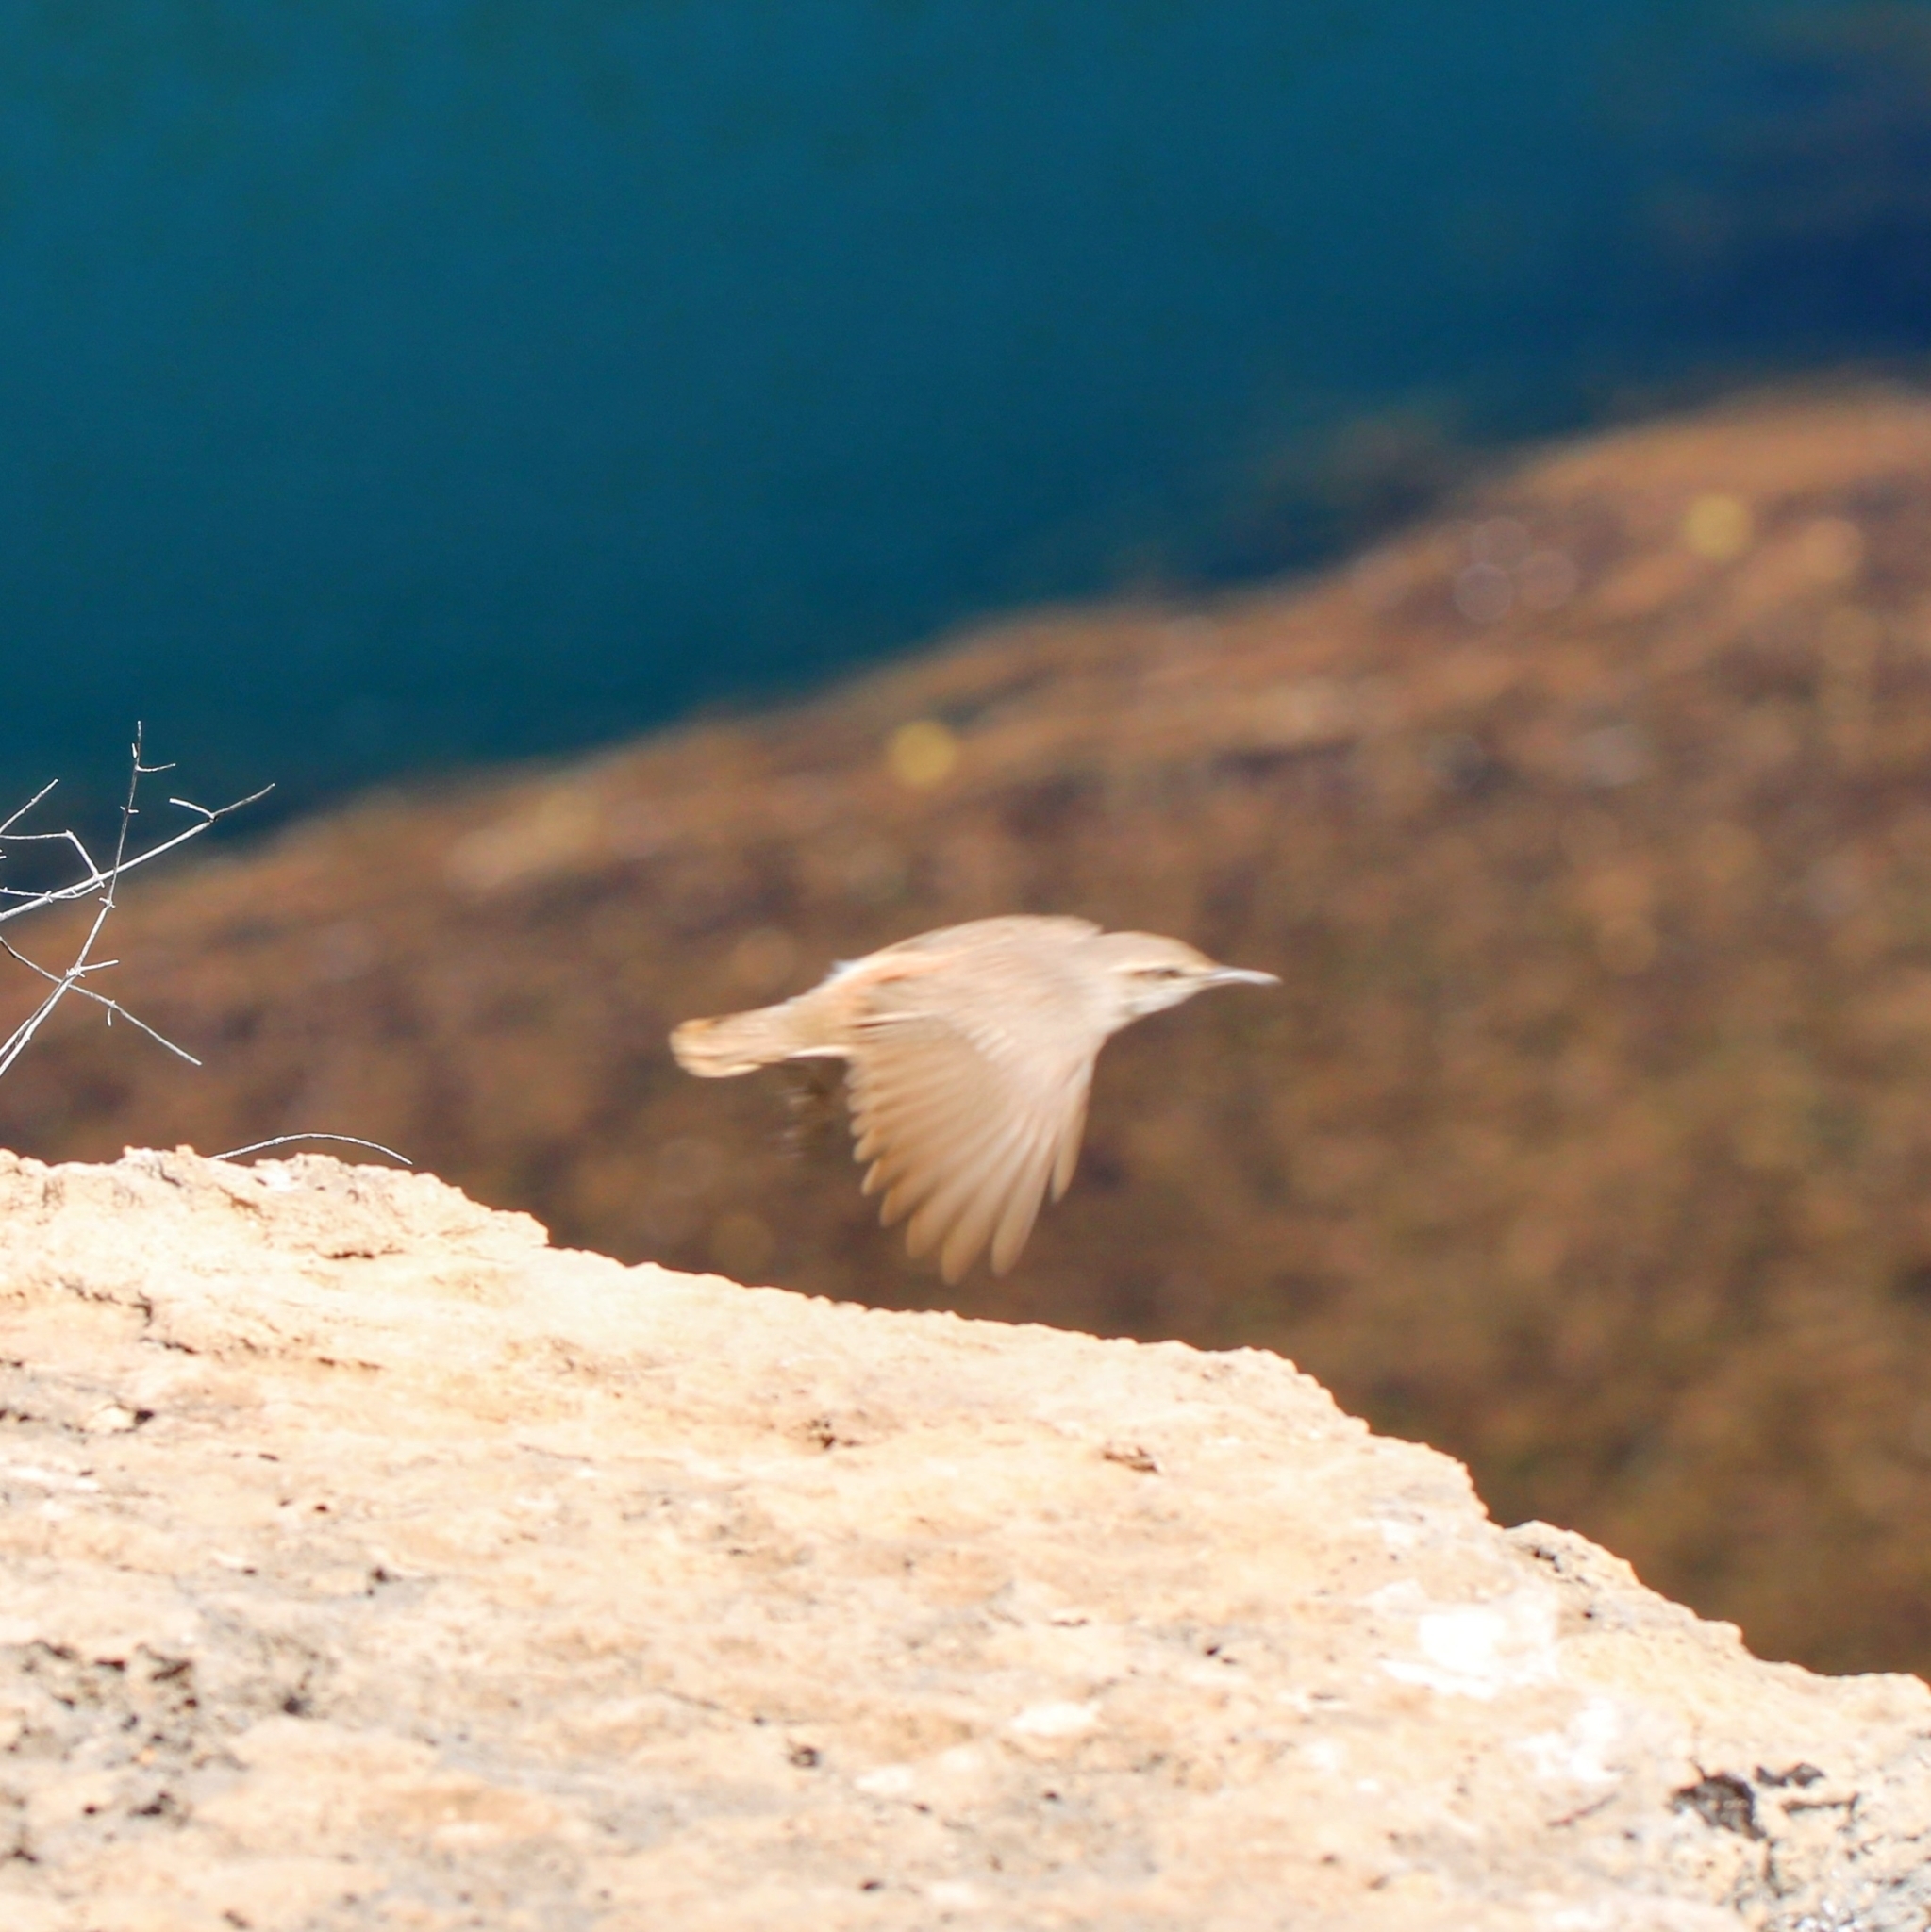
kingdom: Animalia
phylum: Chordata
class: Aves
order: Passeriformes
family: Troglodytidae
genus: Salpinctes
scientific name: Salpinctes obsoletus
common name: Rock wren
